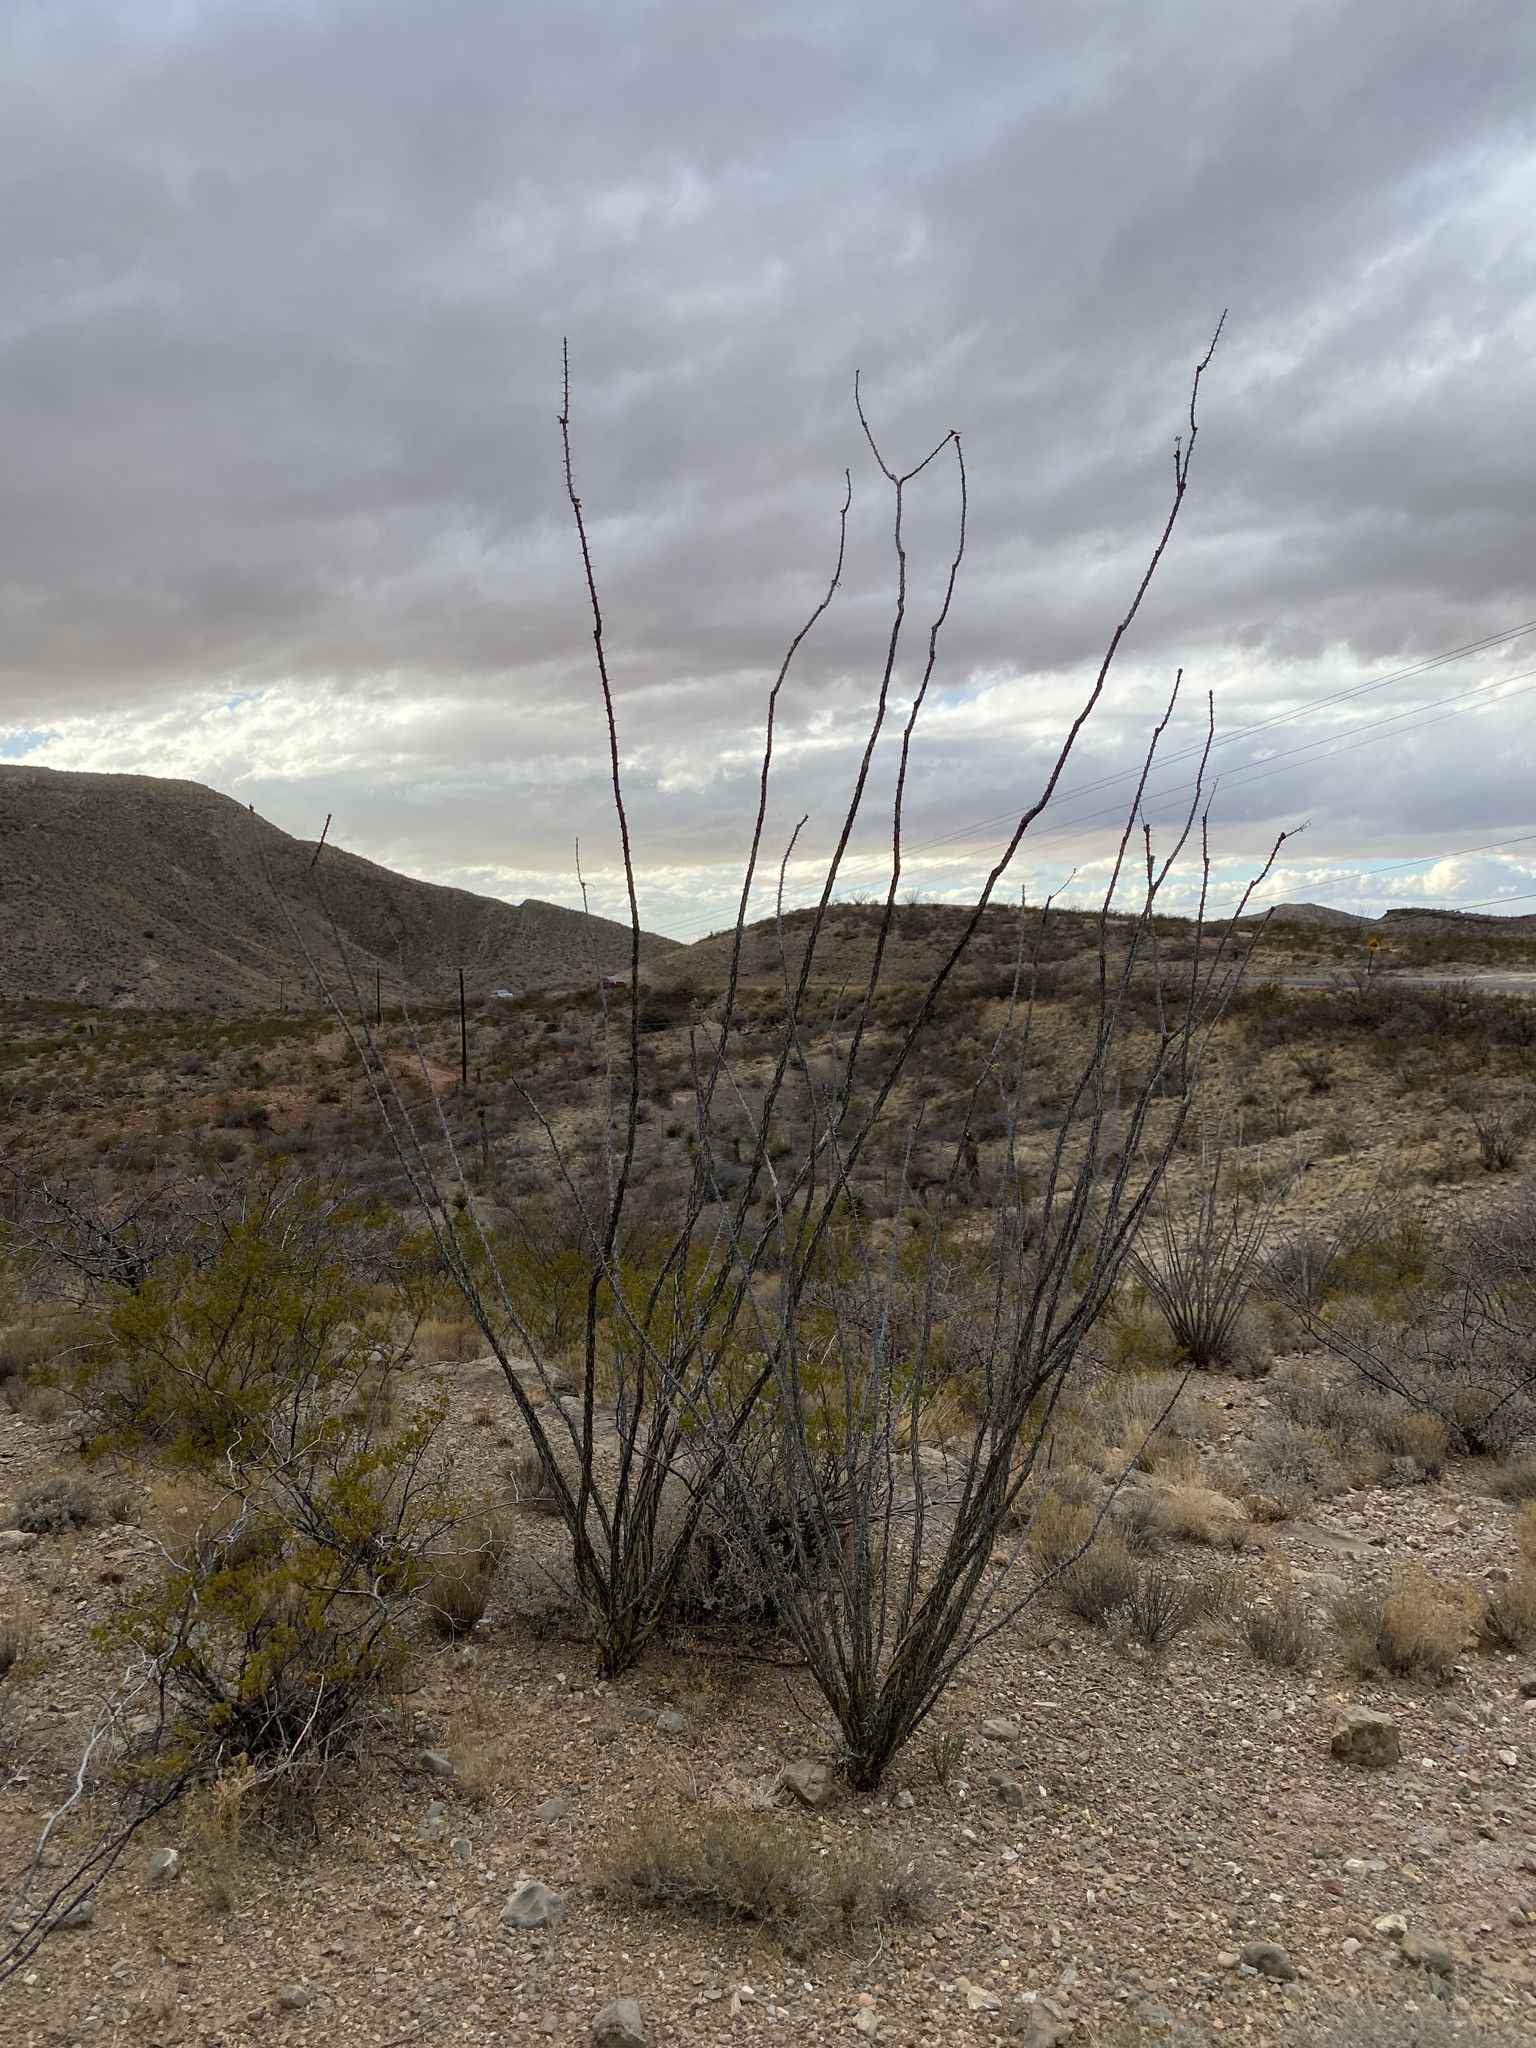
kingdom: Plantae
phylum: Tracheophyta
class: Magnoliopsida
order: Ericales
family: Fouquieriaceae
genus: Fouquieria
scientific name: Fouquieria splendens
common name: Vine-cactus
